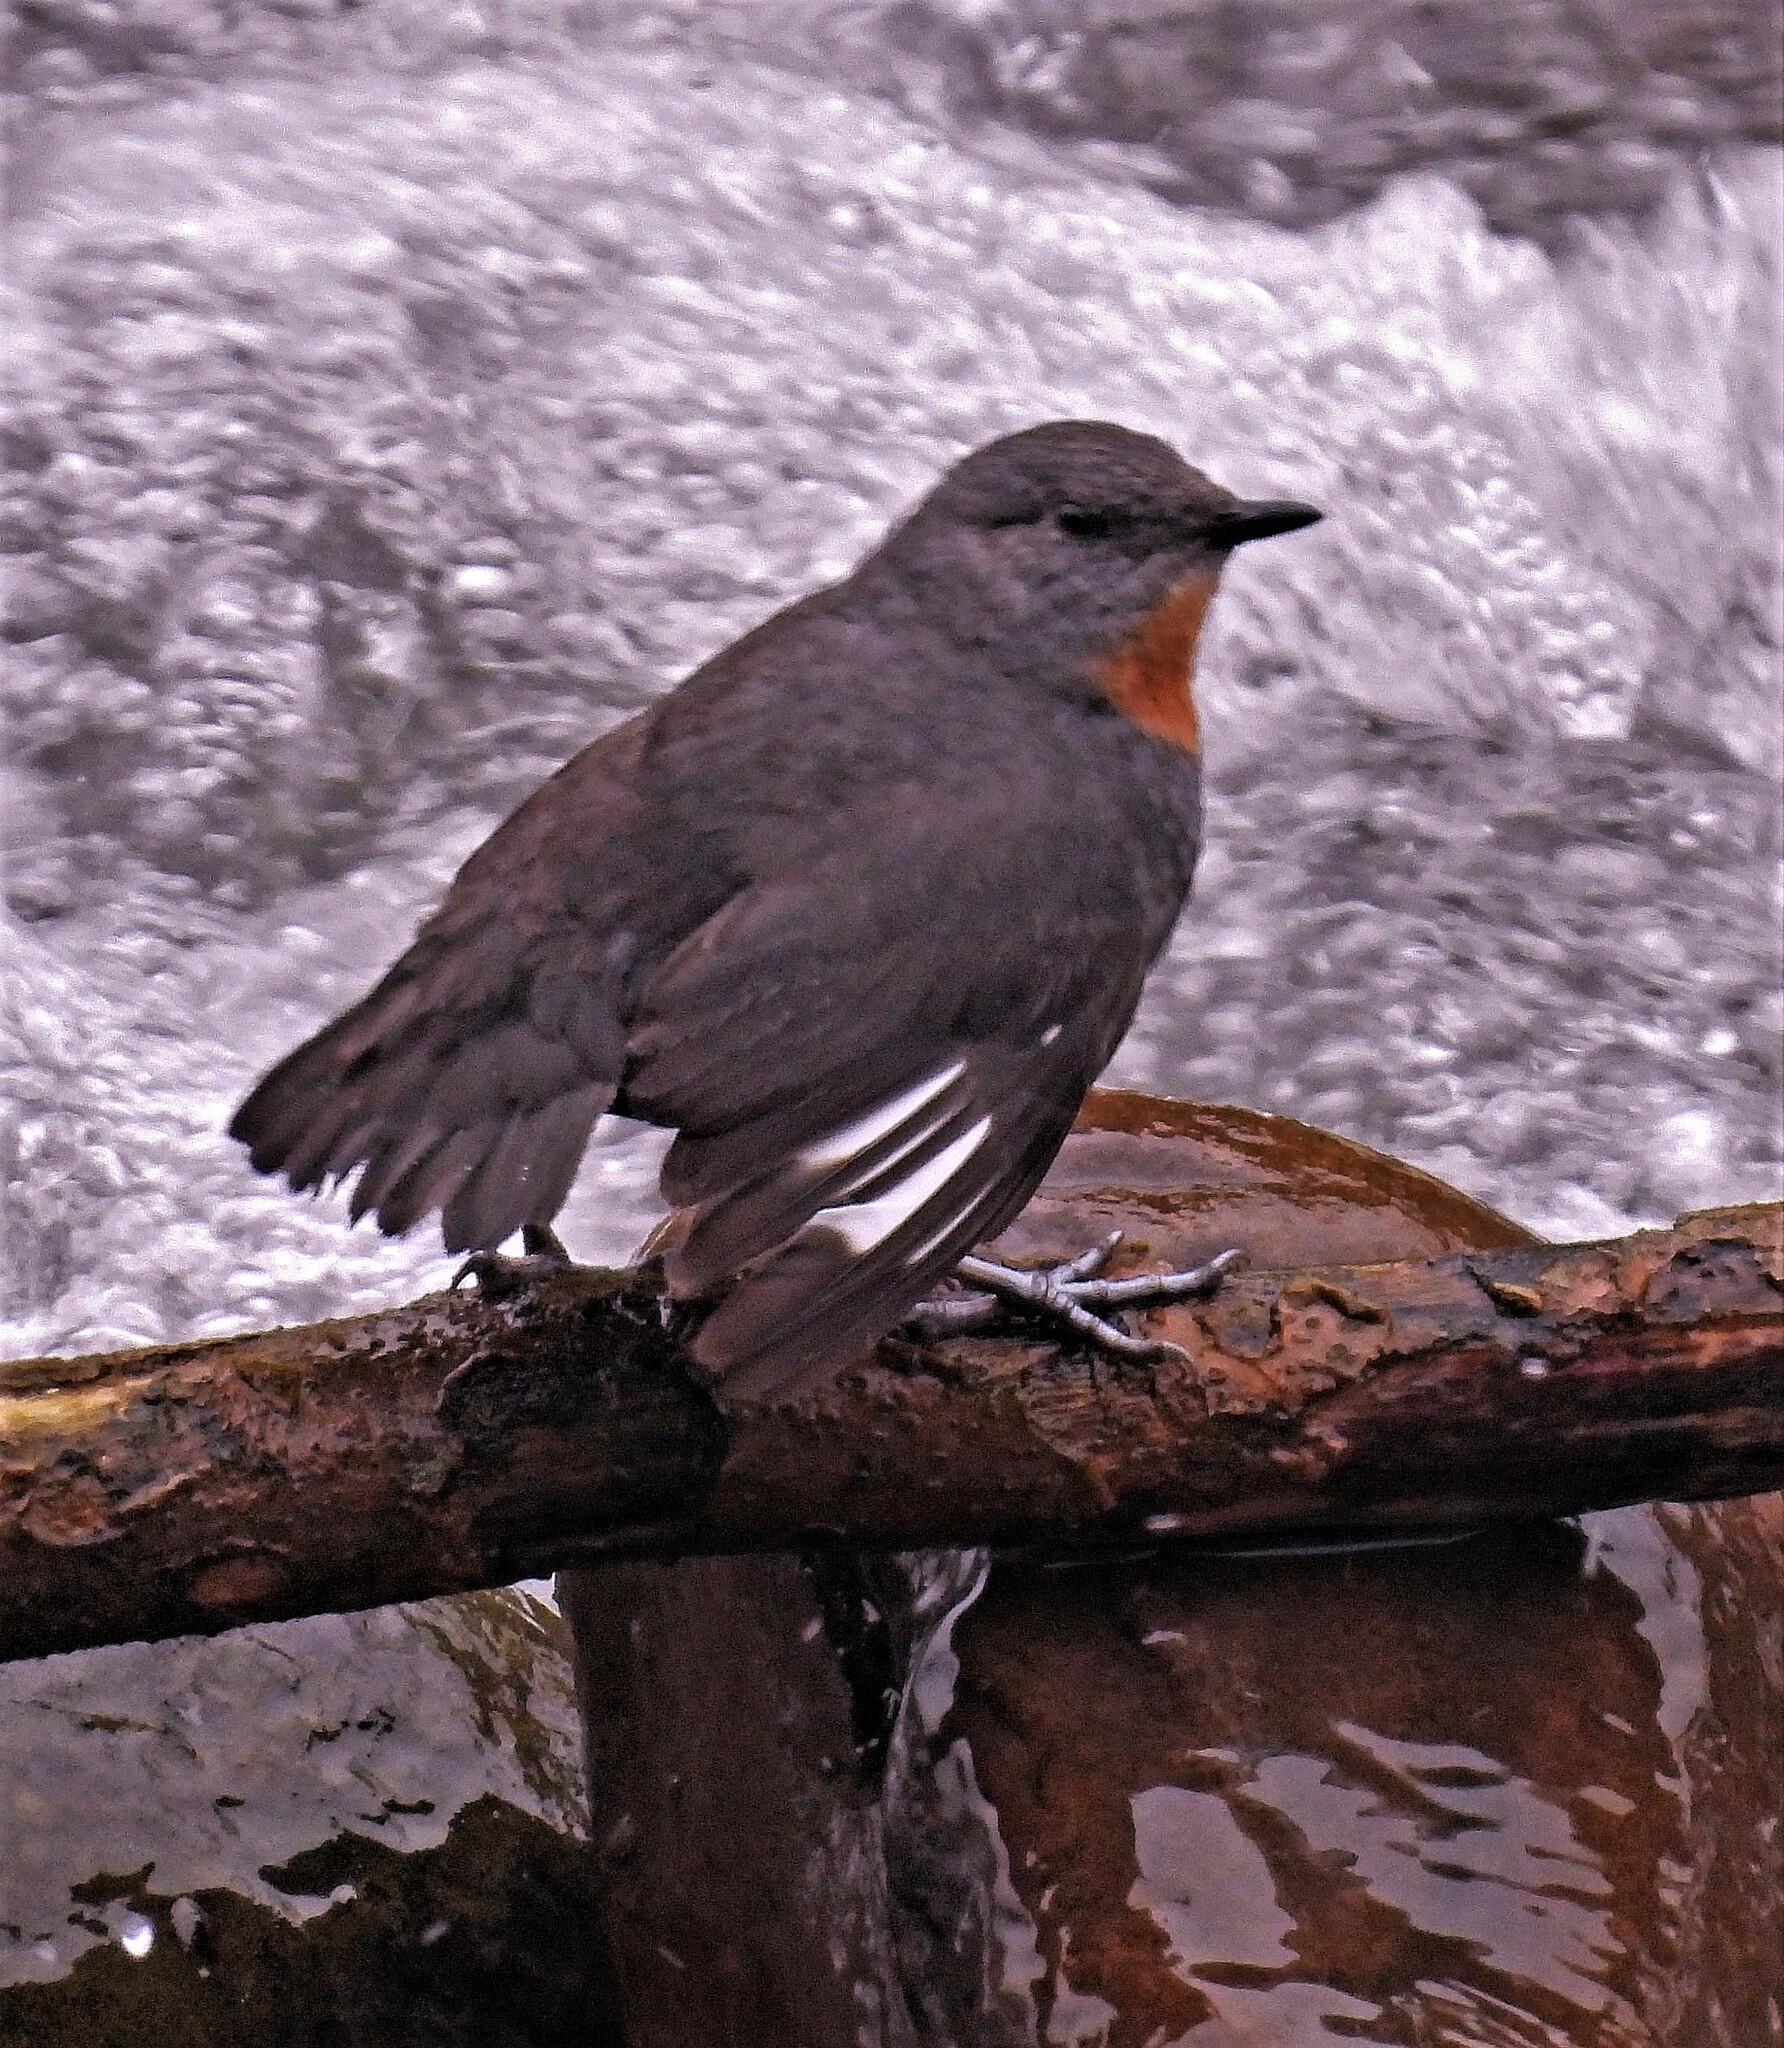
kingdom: Animalia
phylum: Chordata
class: Aves
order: Passeriformes
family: Cinclidae
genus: Cinclus
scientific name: Cinclus schulzii
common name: Rufous-throated dipper
